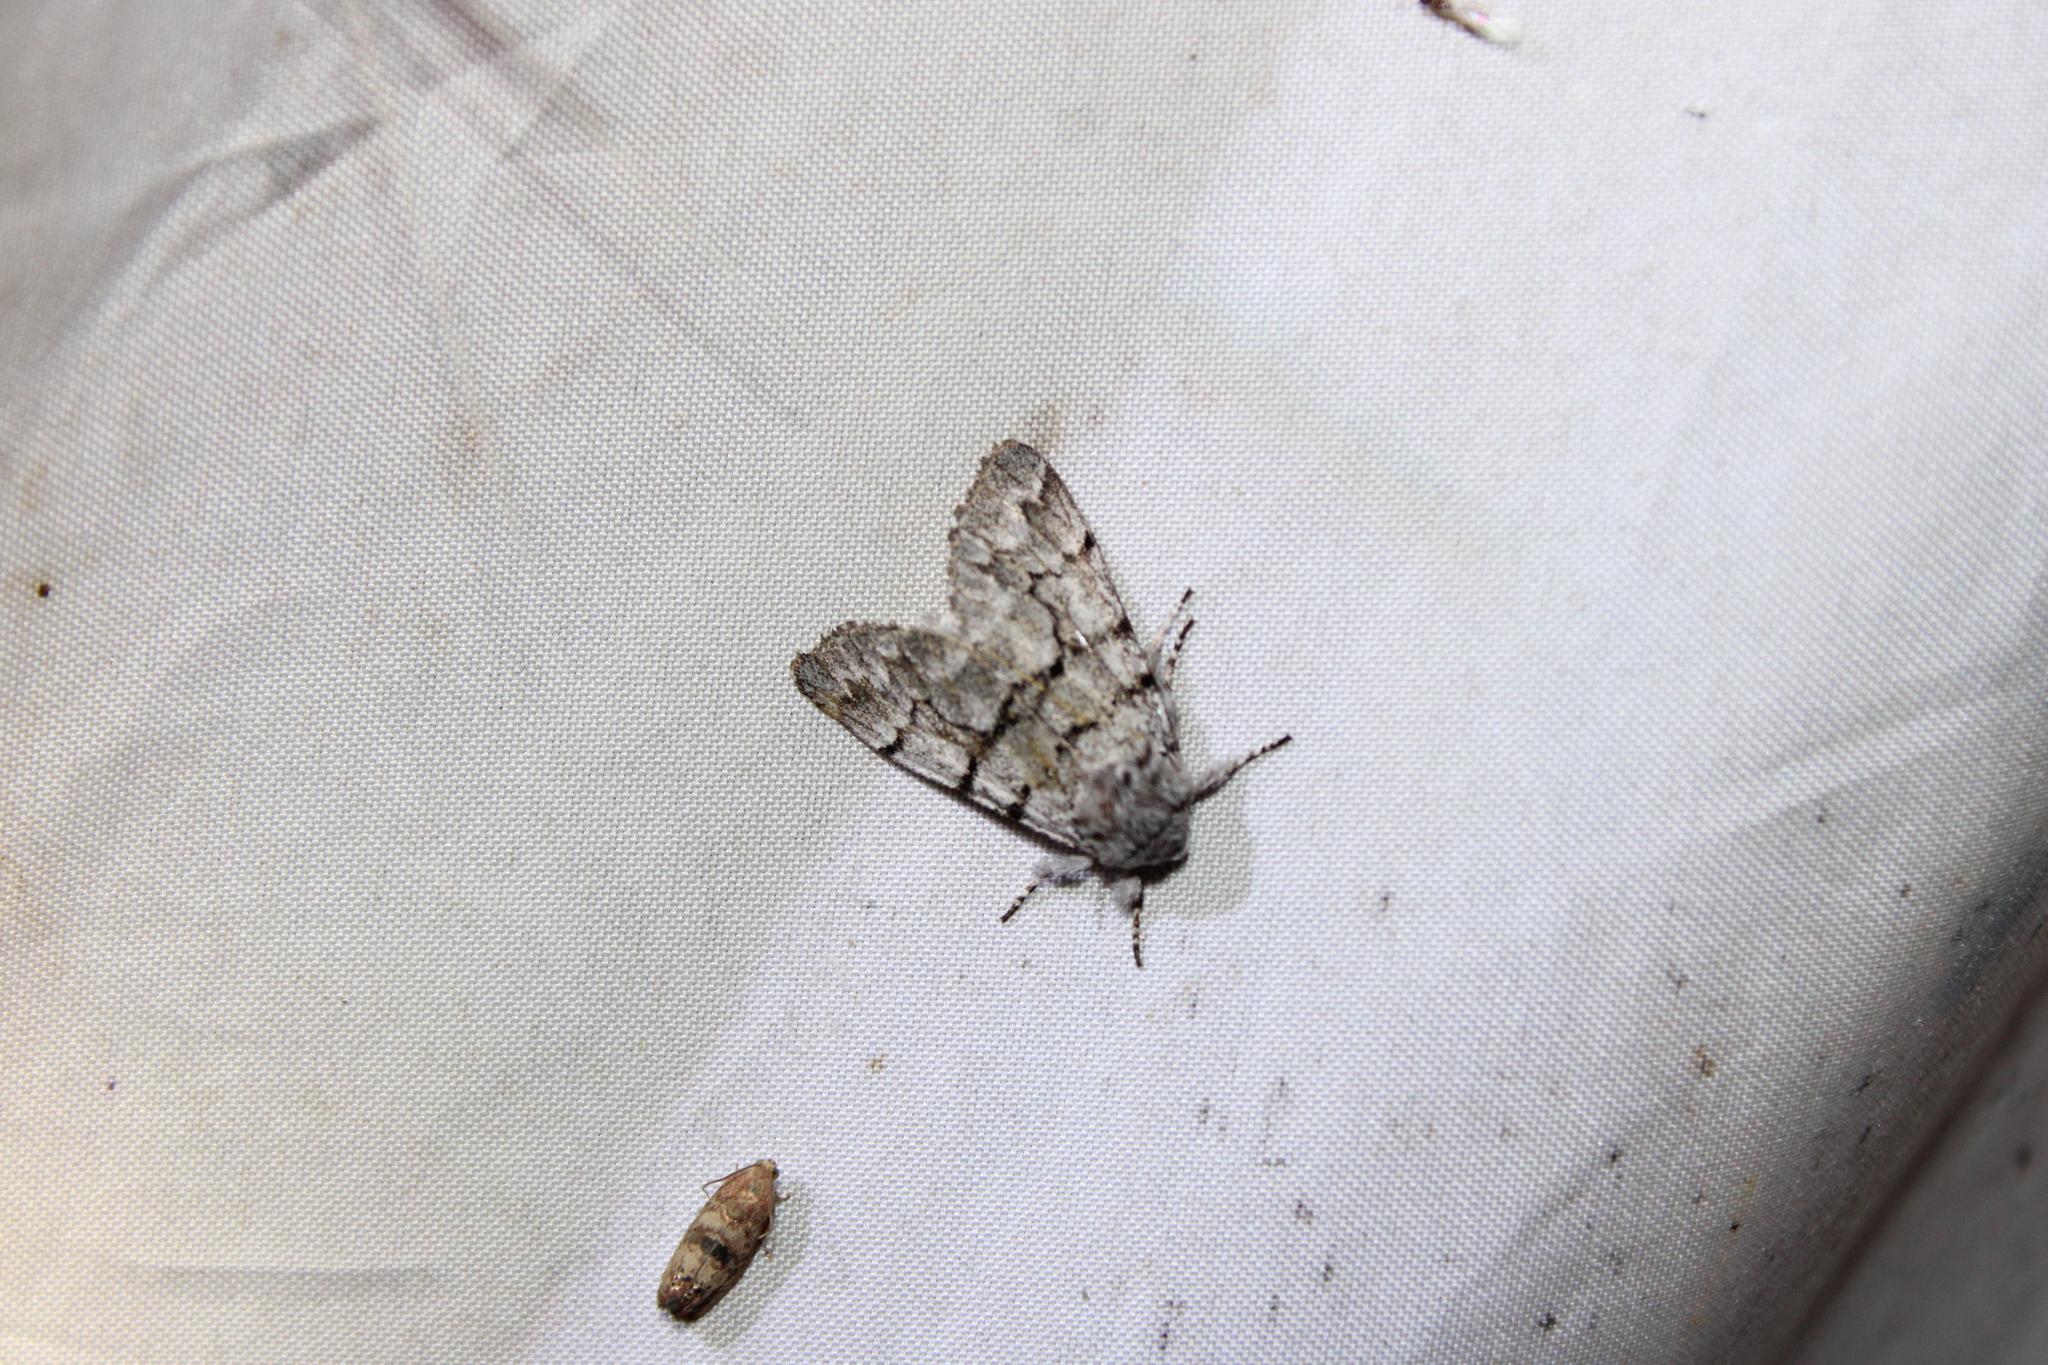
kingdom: Animalia
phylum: Arthropoda
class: Insecta
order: Lepidoptera
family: Noctuidae
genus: Panthea
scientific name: Panthea furcilla
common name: Eastern panthea moth
